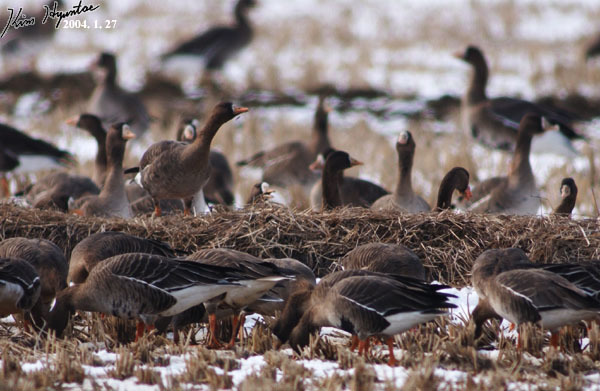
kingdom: Animalia
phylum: Chordata
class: Aves
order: Anseriformes
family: Anatidae
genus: Anser
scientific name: Anser albifrons
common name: Greater white-fronted goose
